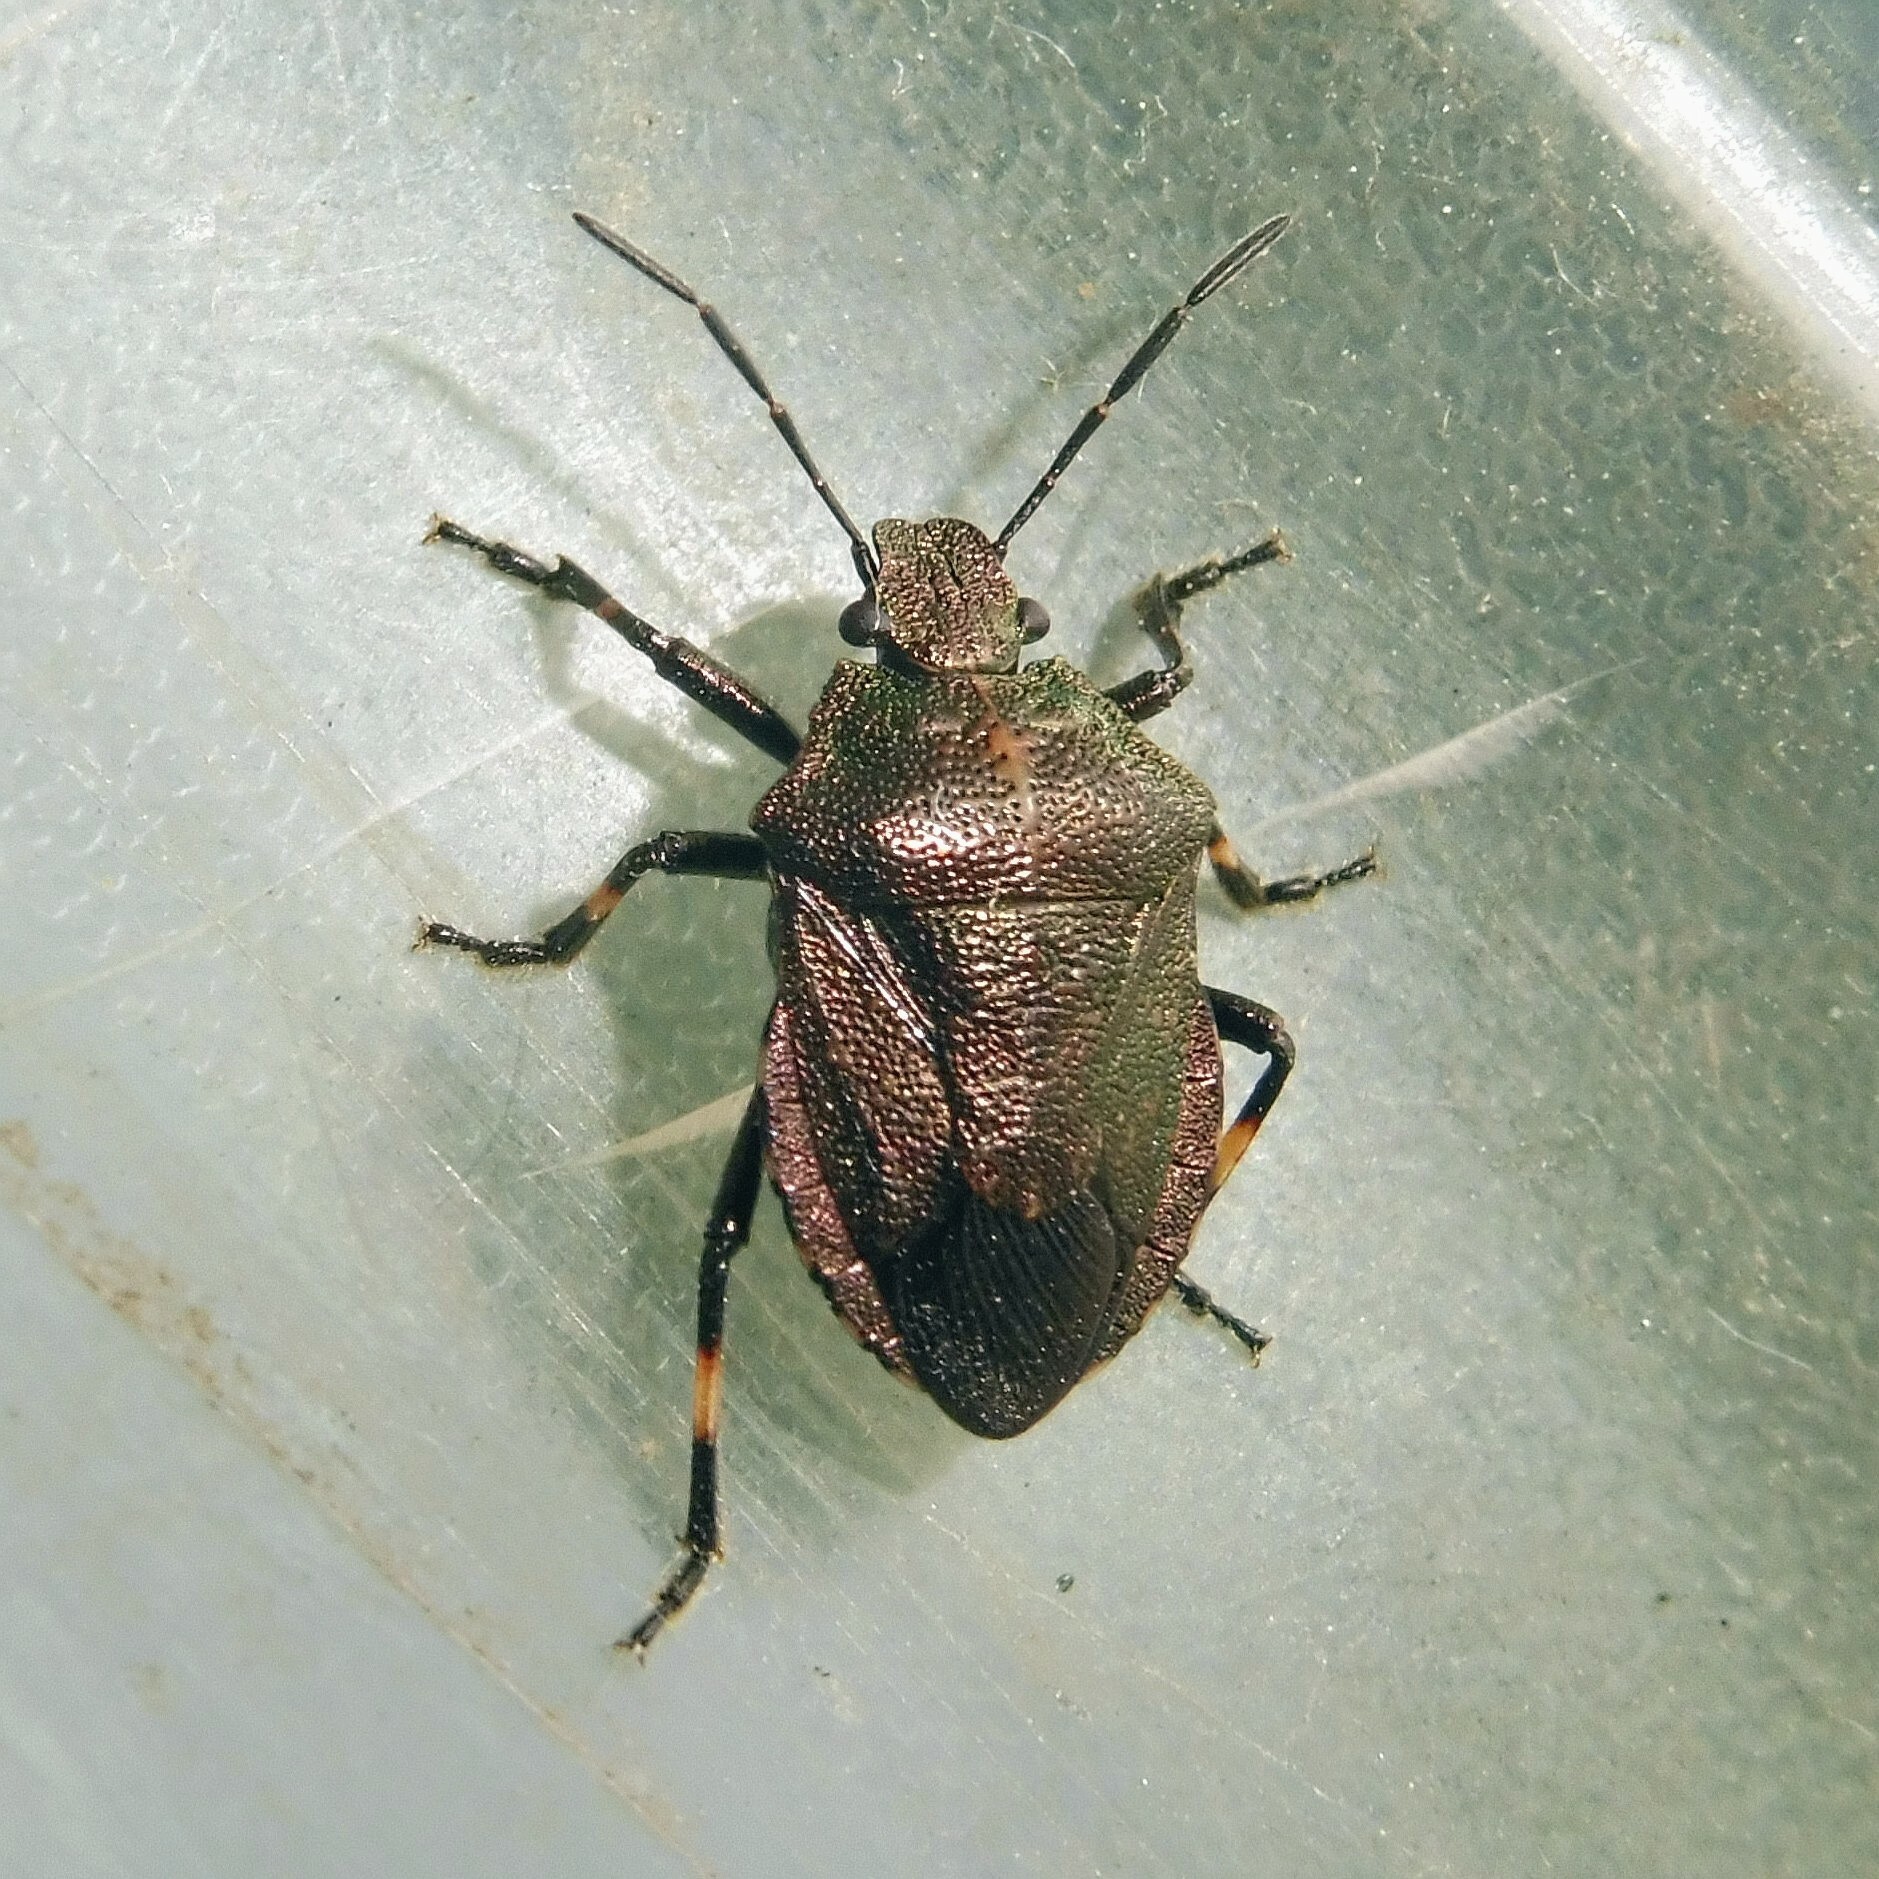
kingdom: Animalia
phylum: Arthropoda
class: Insecta
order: Hemiptera
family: Pentatomidae
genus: Rhacognathus
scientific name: Rhacognathus punctatus
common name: Heather bug
